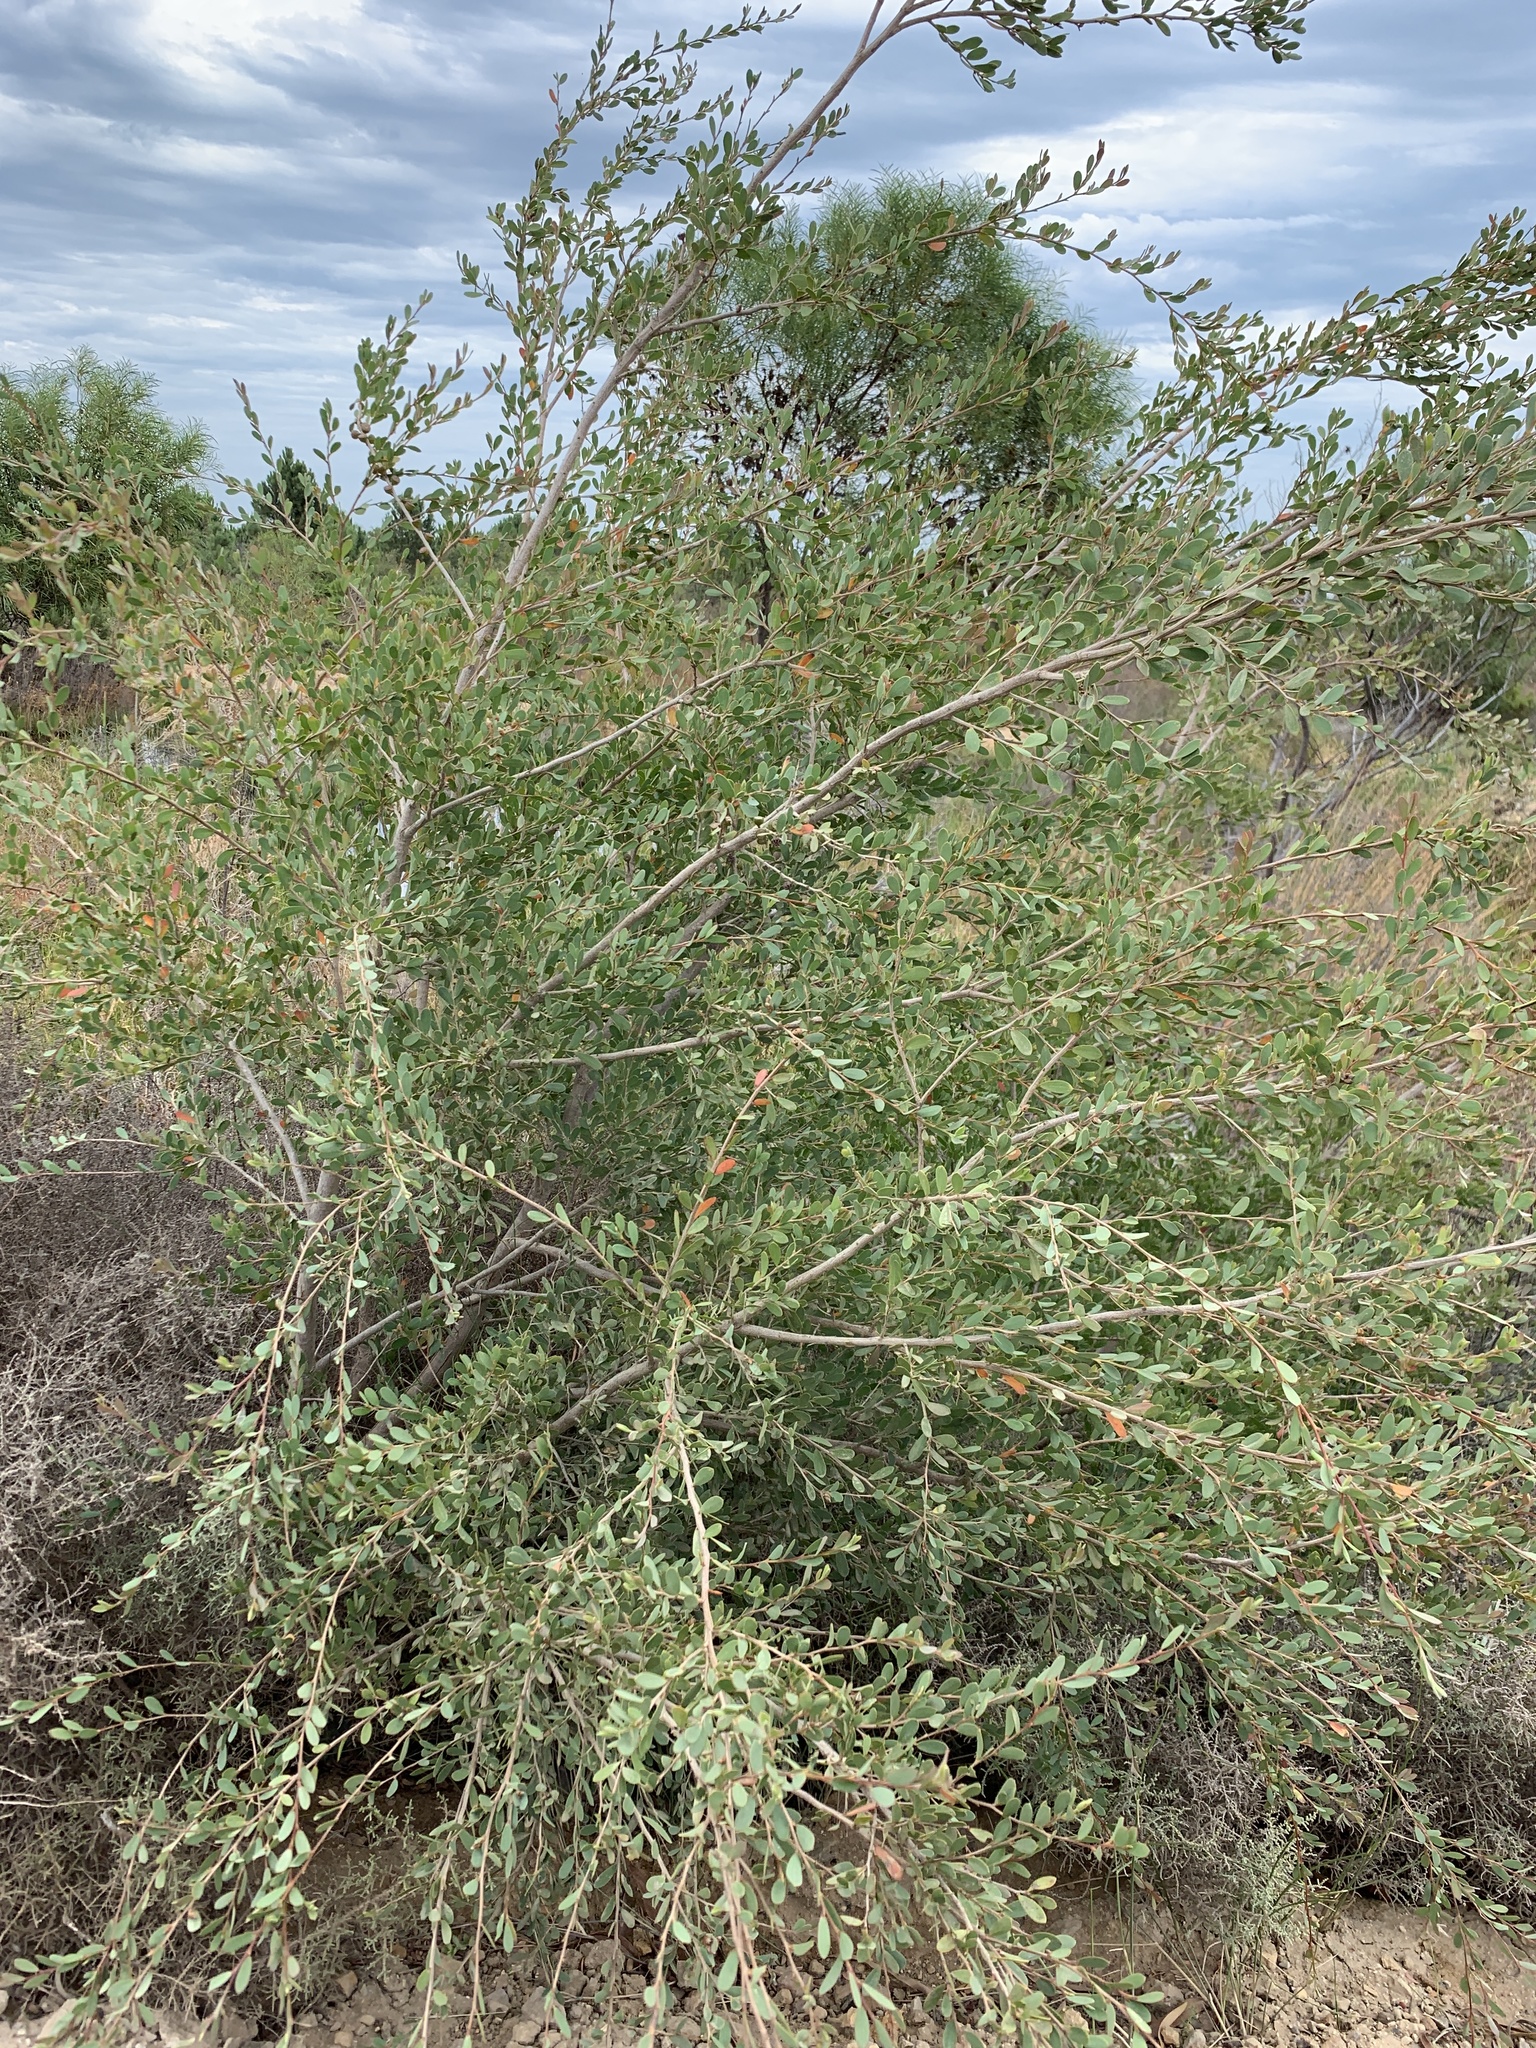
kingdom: Plantae
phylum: Tracheophyta
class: Magnoliopsida
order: Myrtales
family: Myrtaceae
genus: Leptospermum
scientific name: Leptospermum laevigatum
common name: Australian teatree
